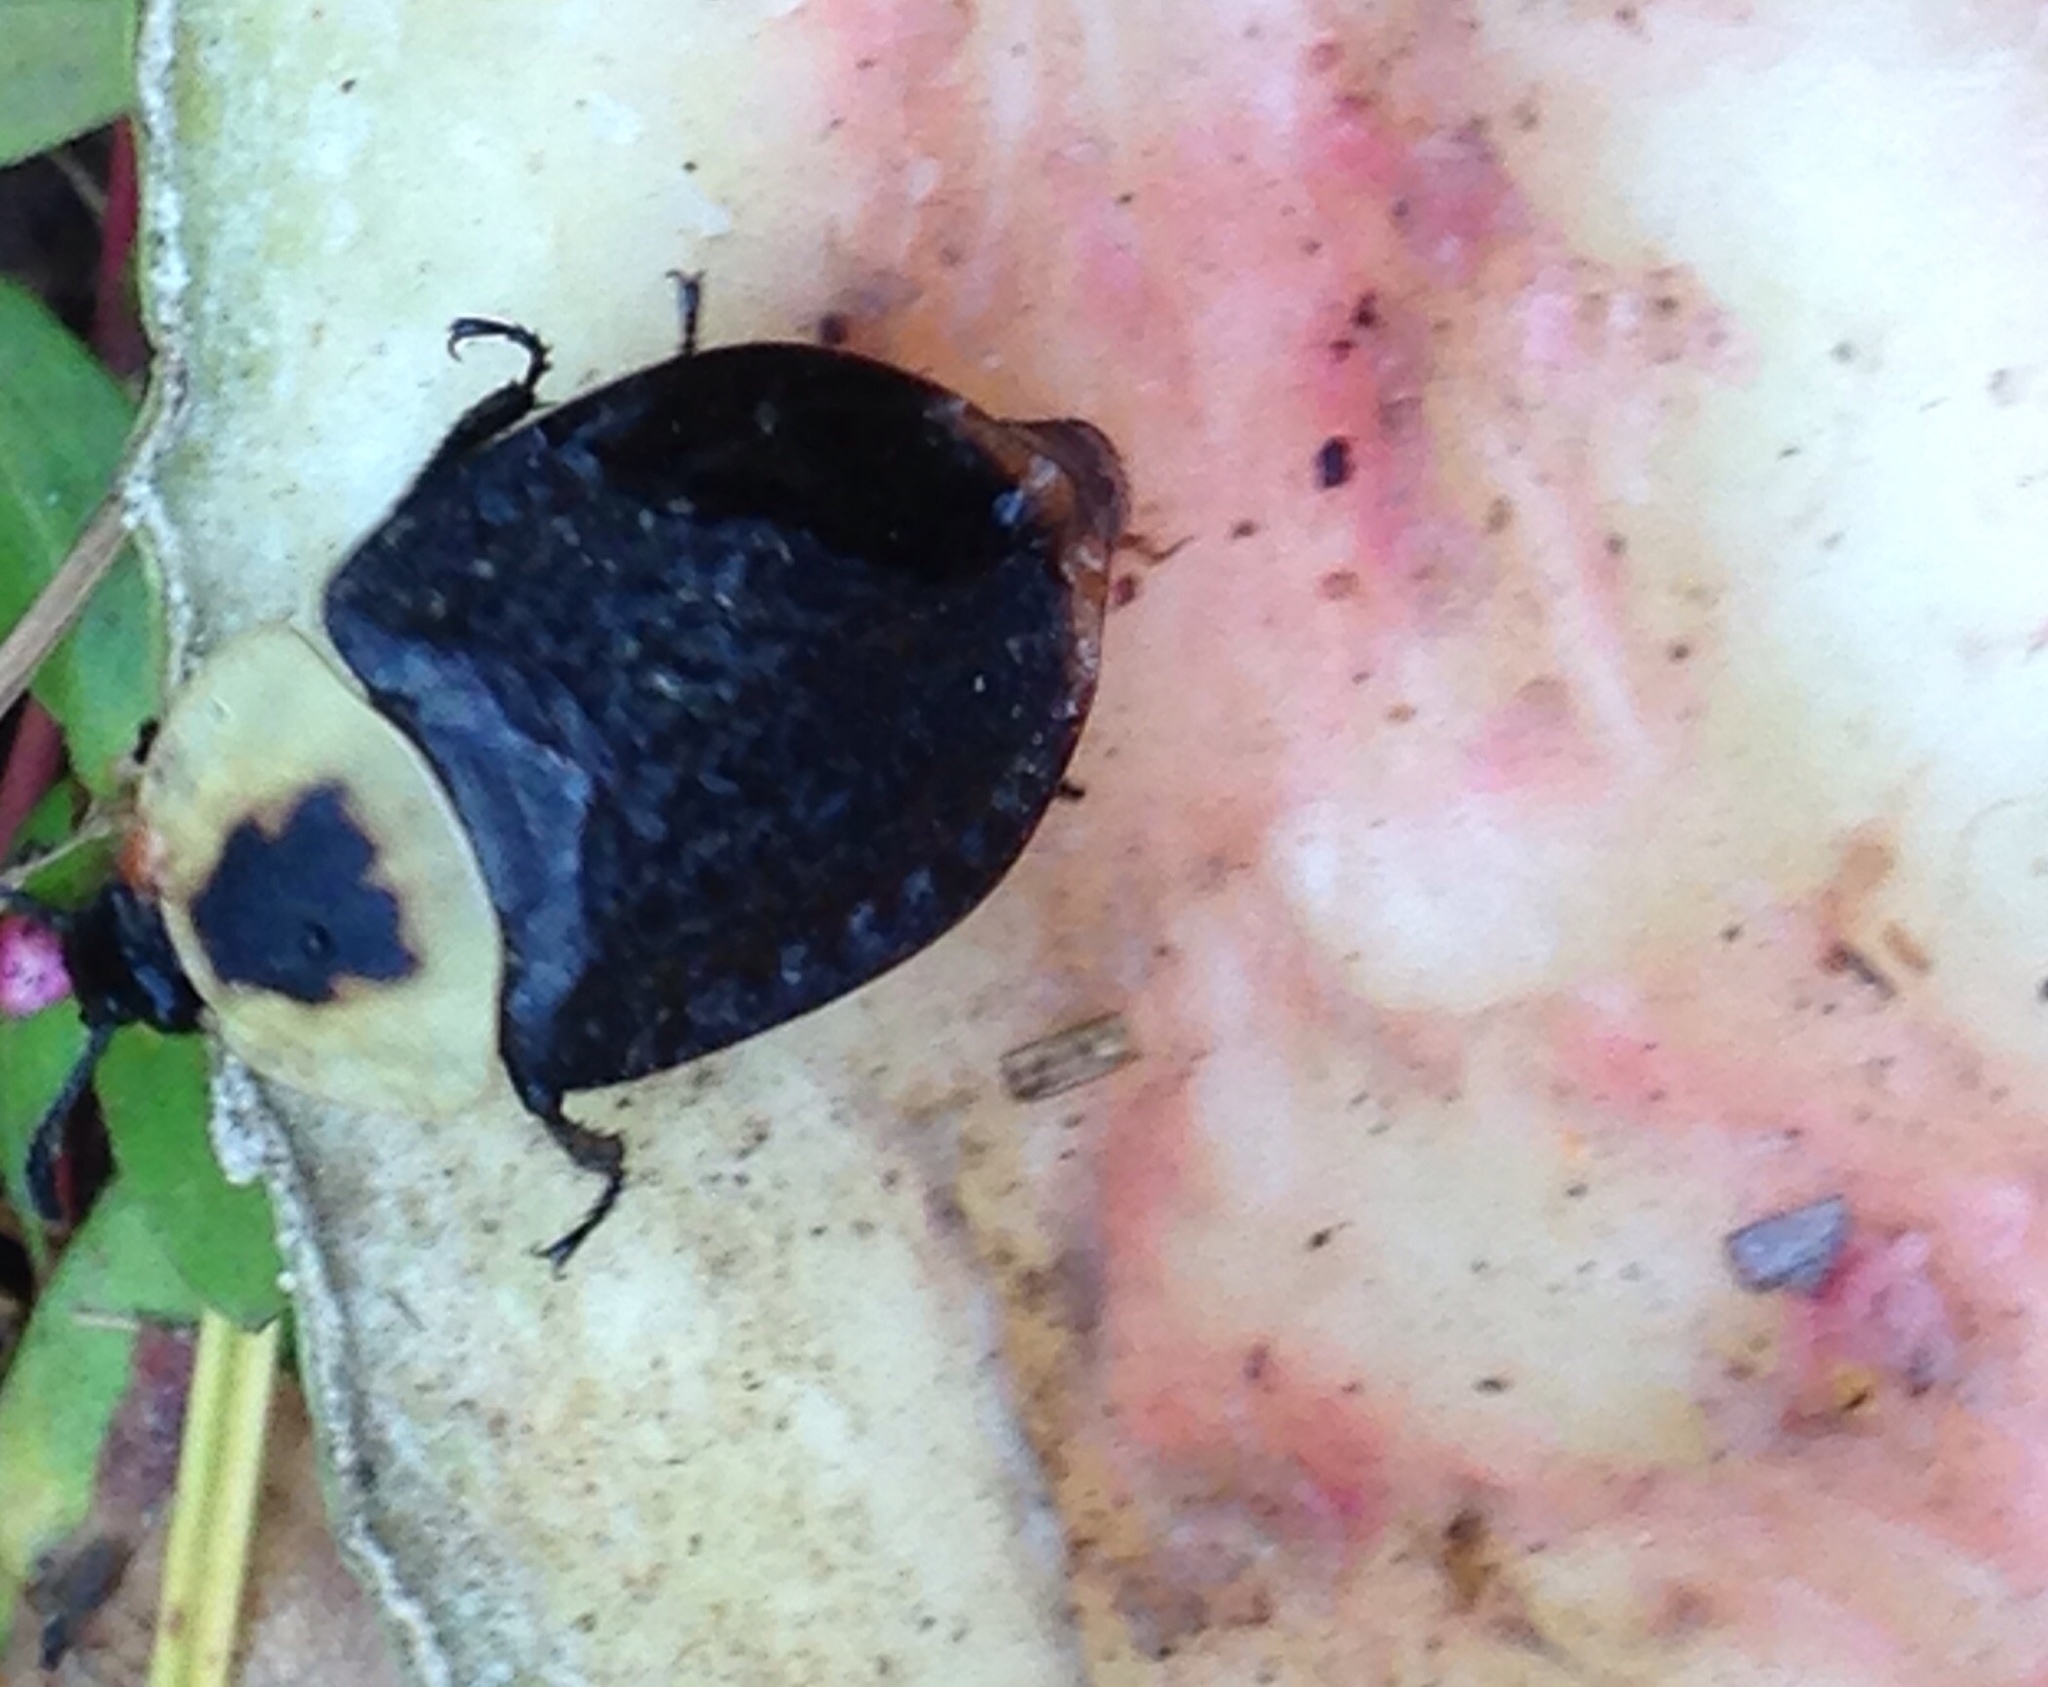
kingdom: Animalia
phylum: Arthropoda
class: Insecta
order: Coleoptera
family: Staphylinidae
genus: Necrophila
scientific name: Necrophila americana
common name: American carrion beetle
